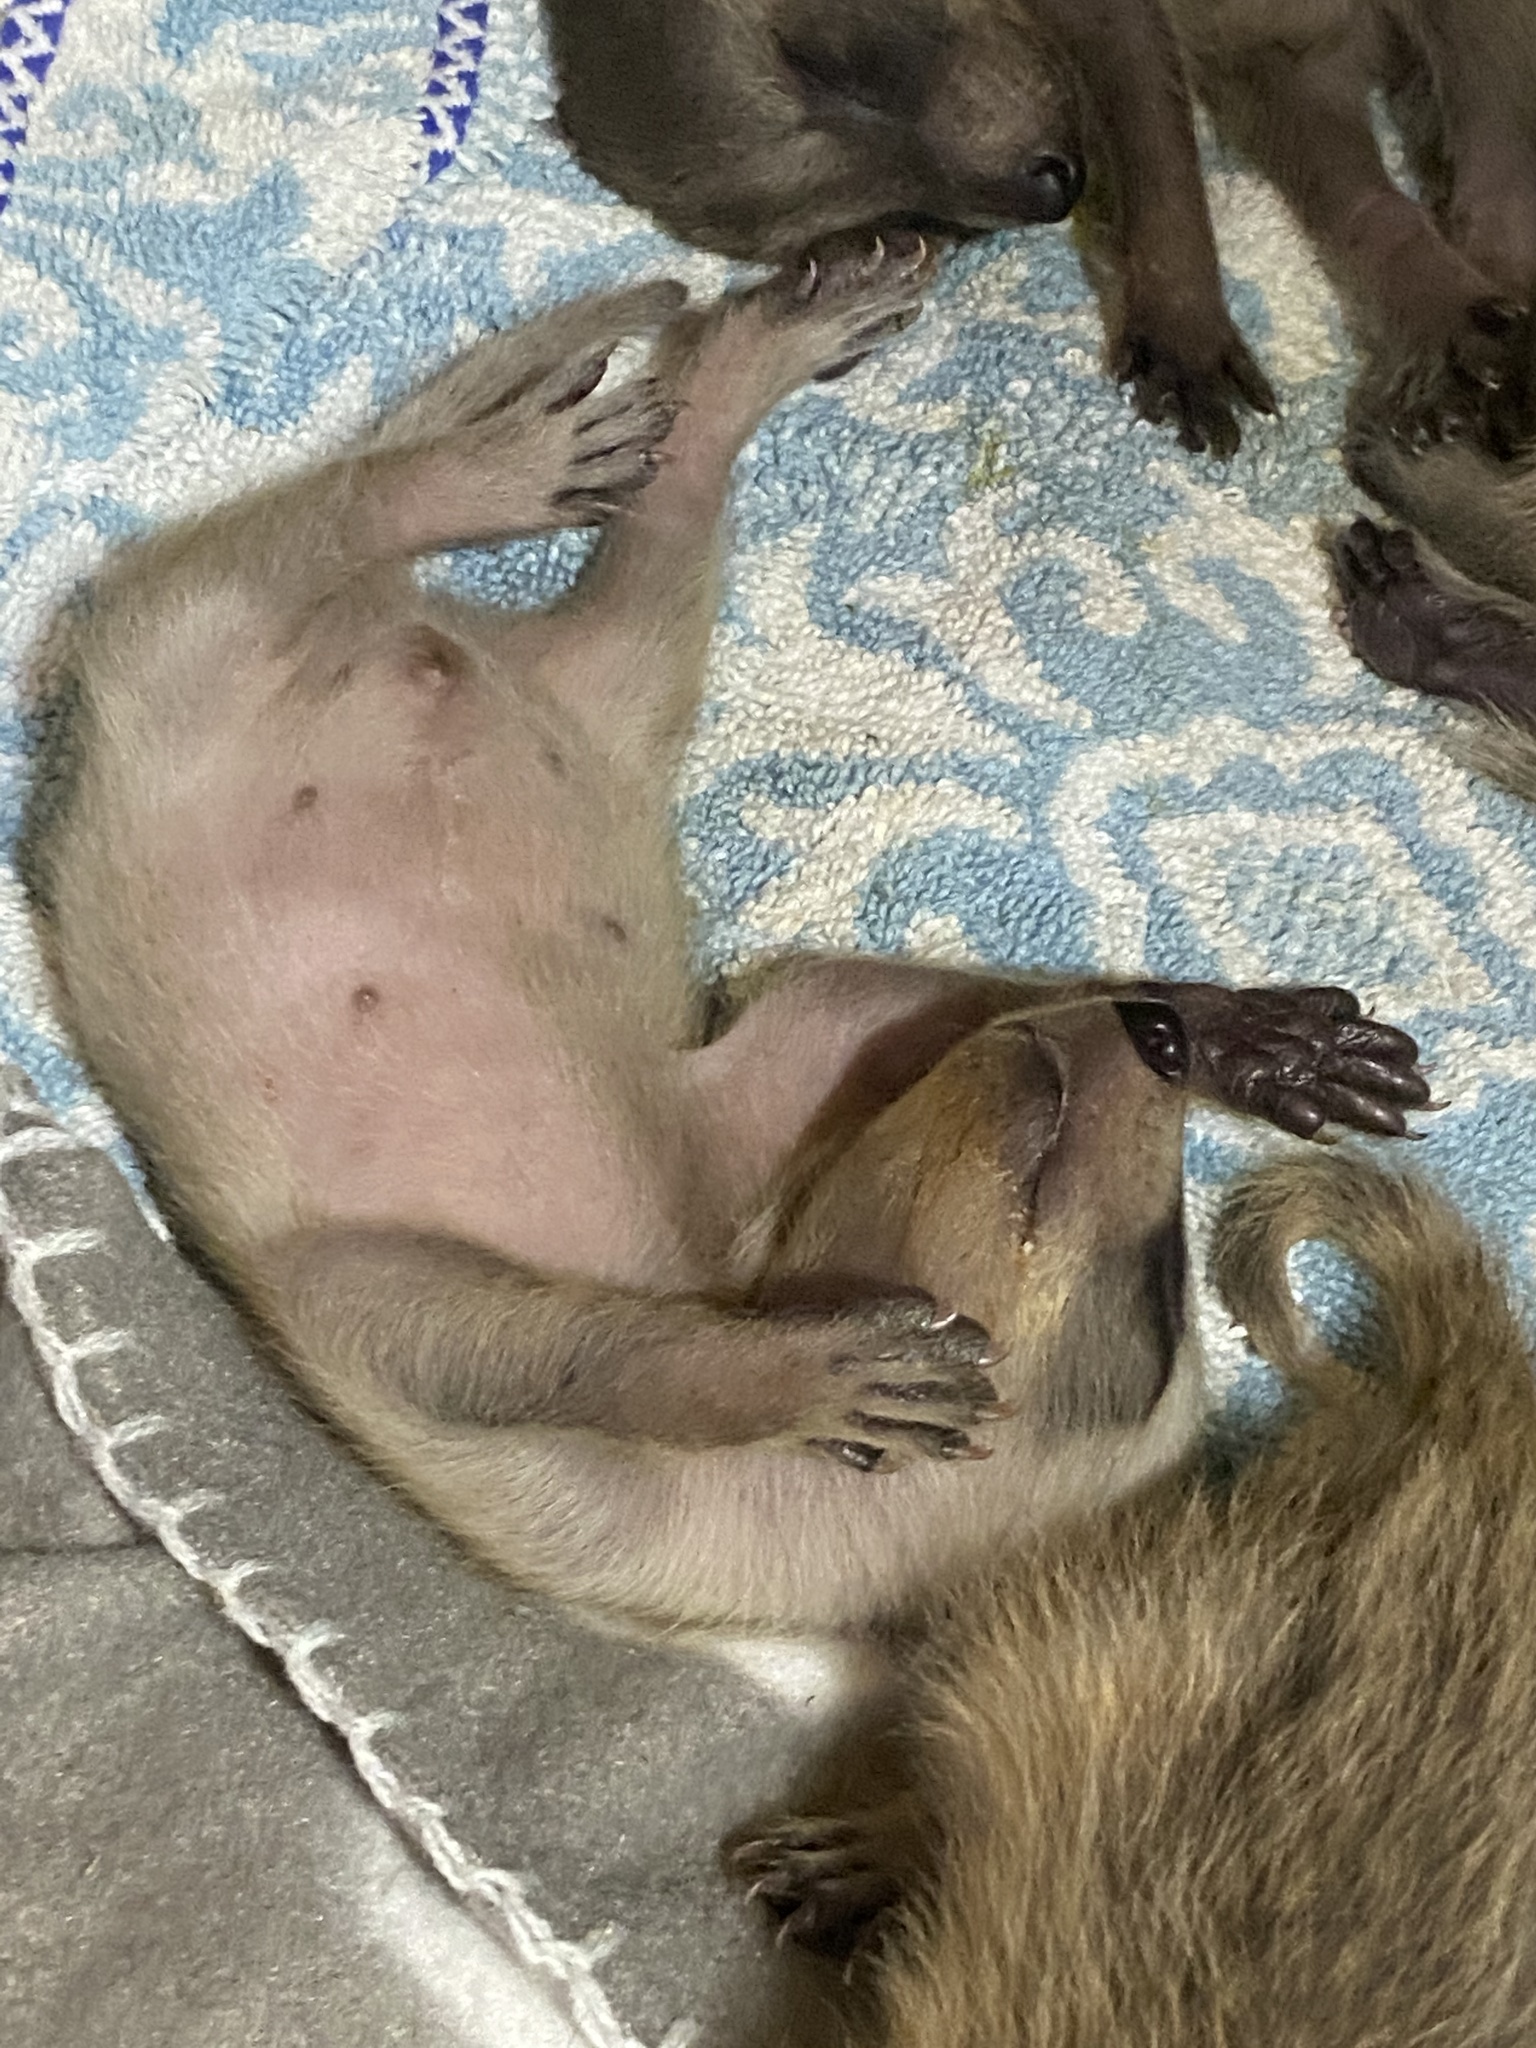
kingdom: Animalia
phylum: Chordata
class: Mammalia
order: Carnivora
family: Procyonidae
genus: Procyon
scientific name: Procyon lotor
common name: Raccoon
